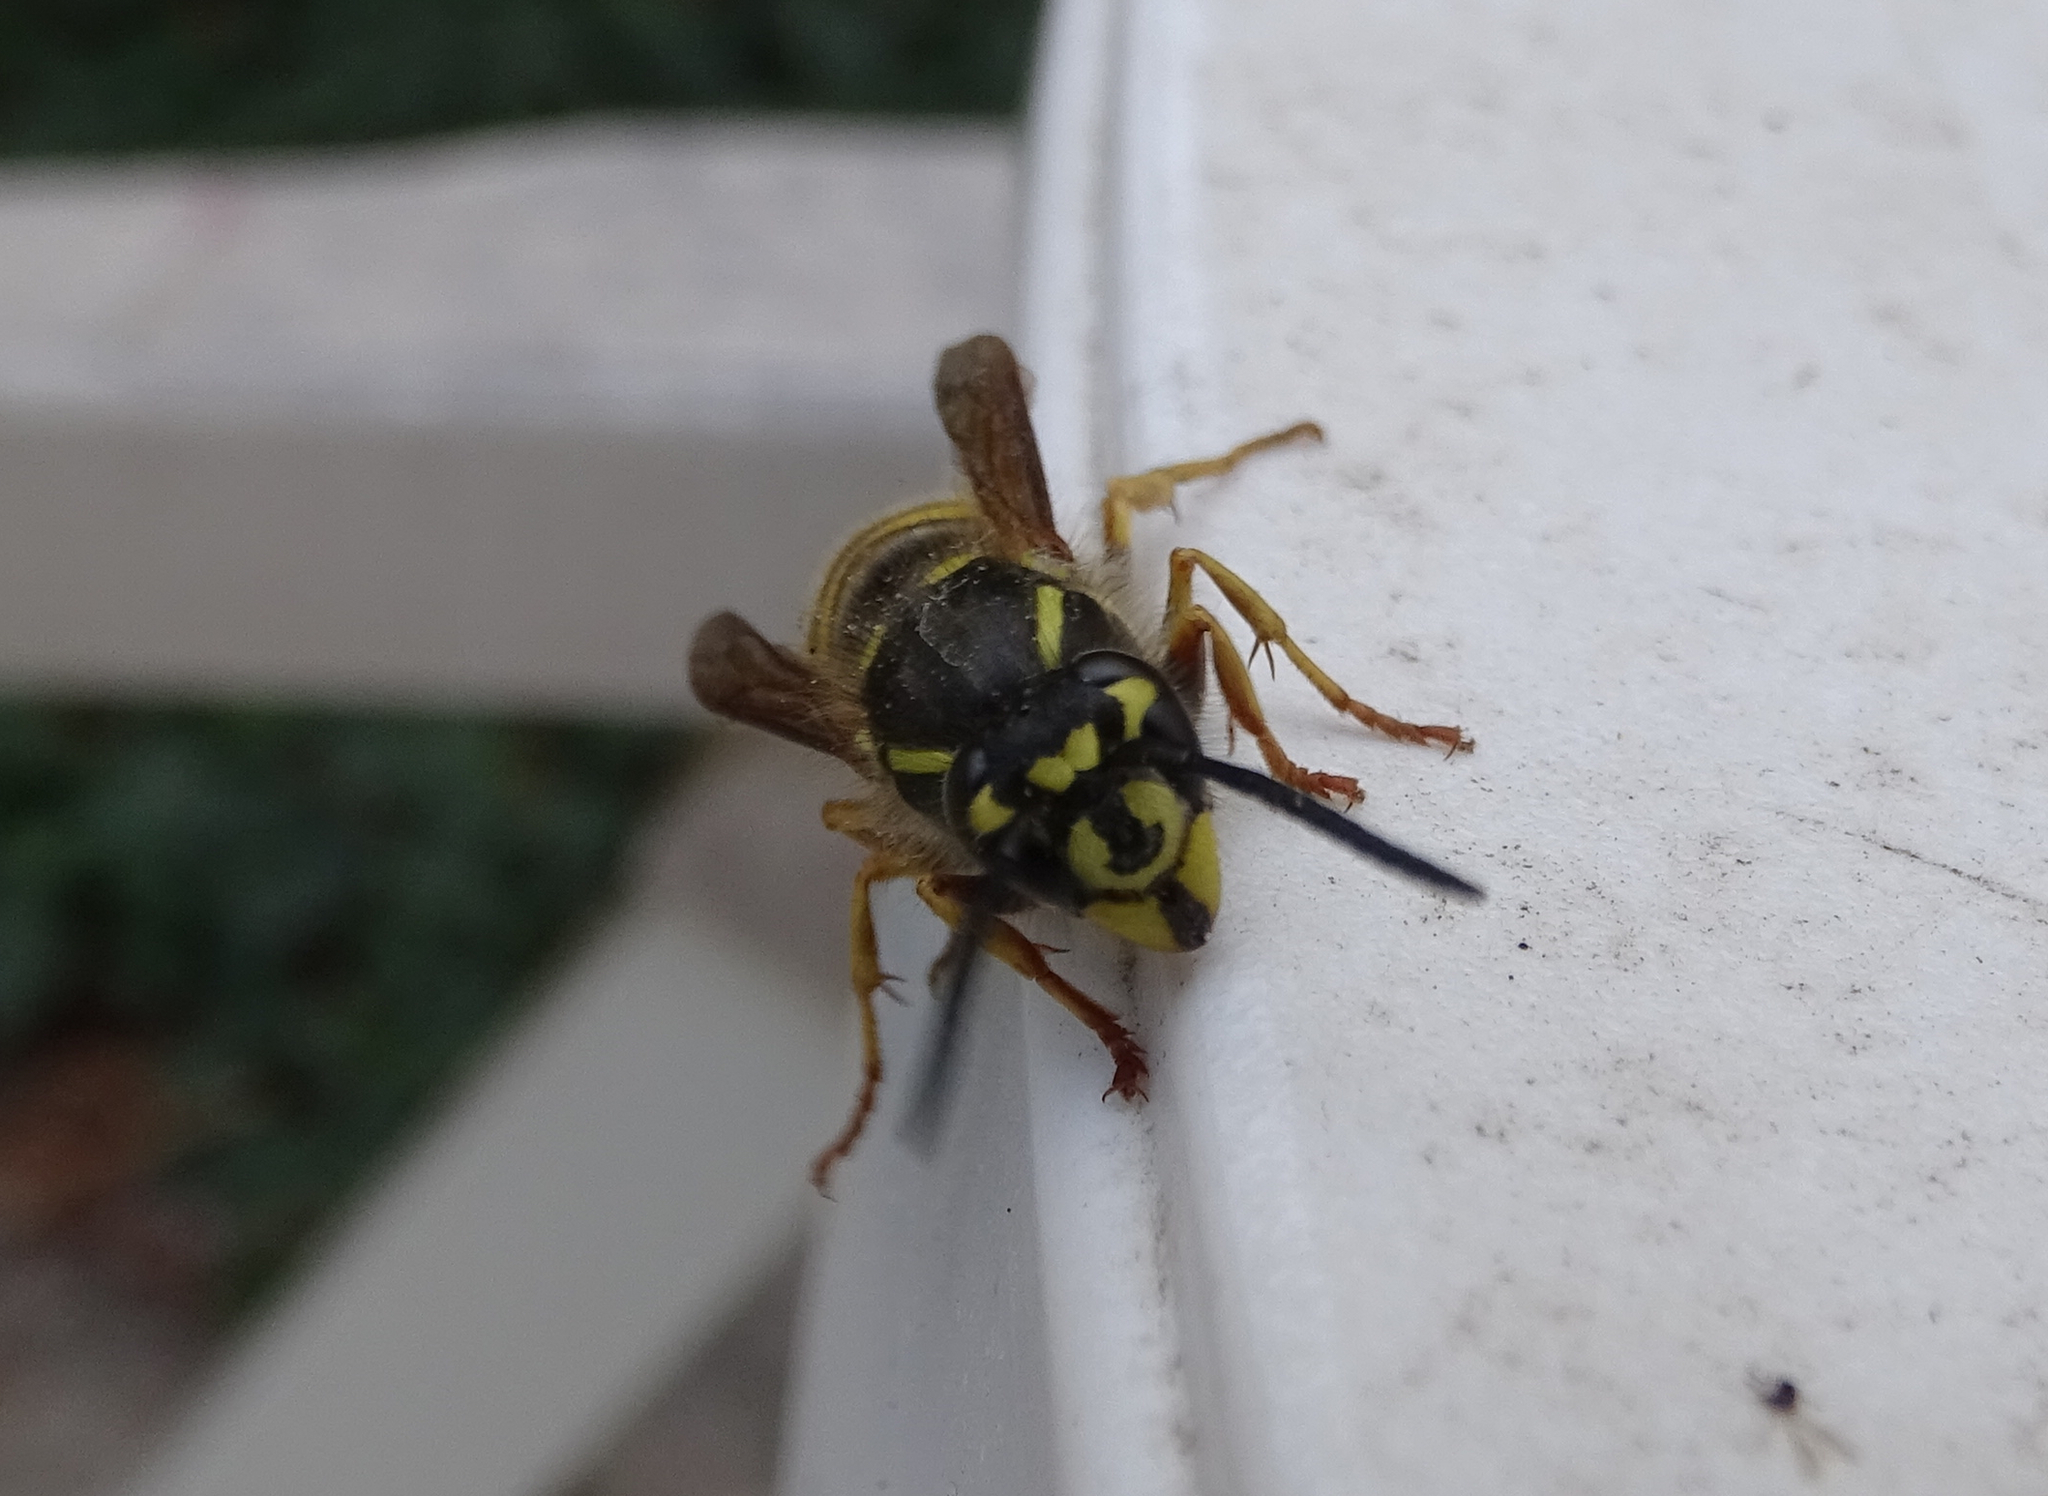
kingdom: Animalia
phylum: Arthropoda
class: Insecta
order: Hymenoptera
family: Vespidae
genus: Vespula
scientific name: Vespula vulgaris
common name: Common wasp
